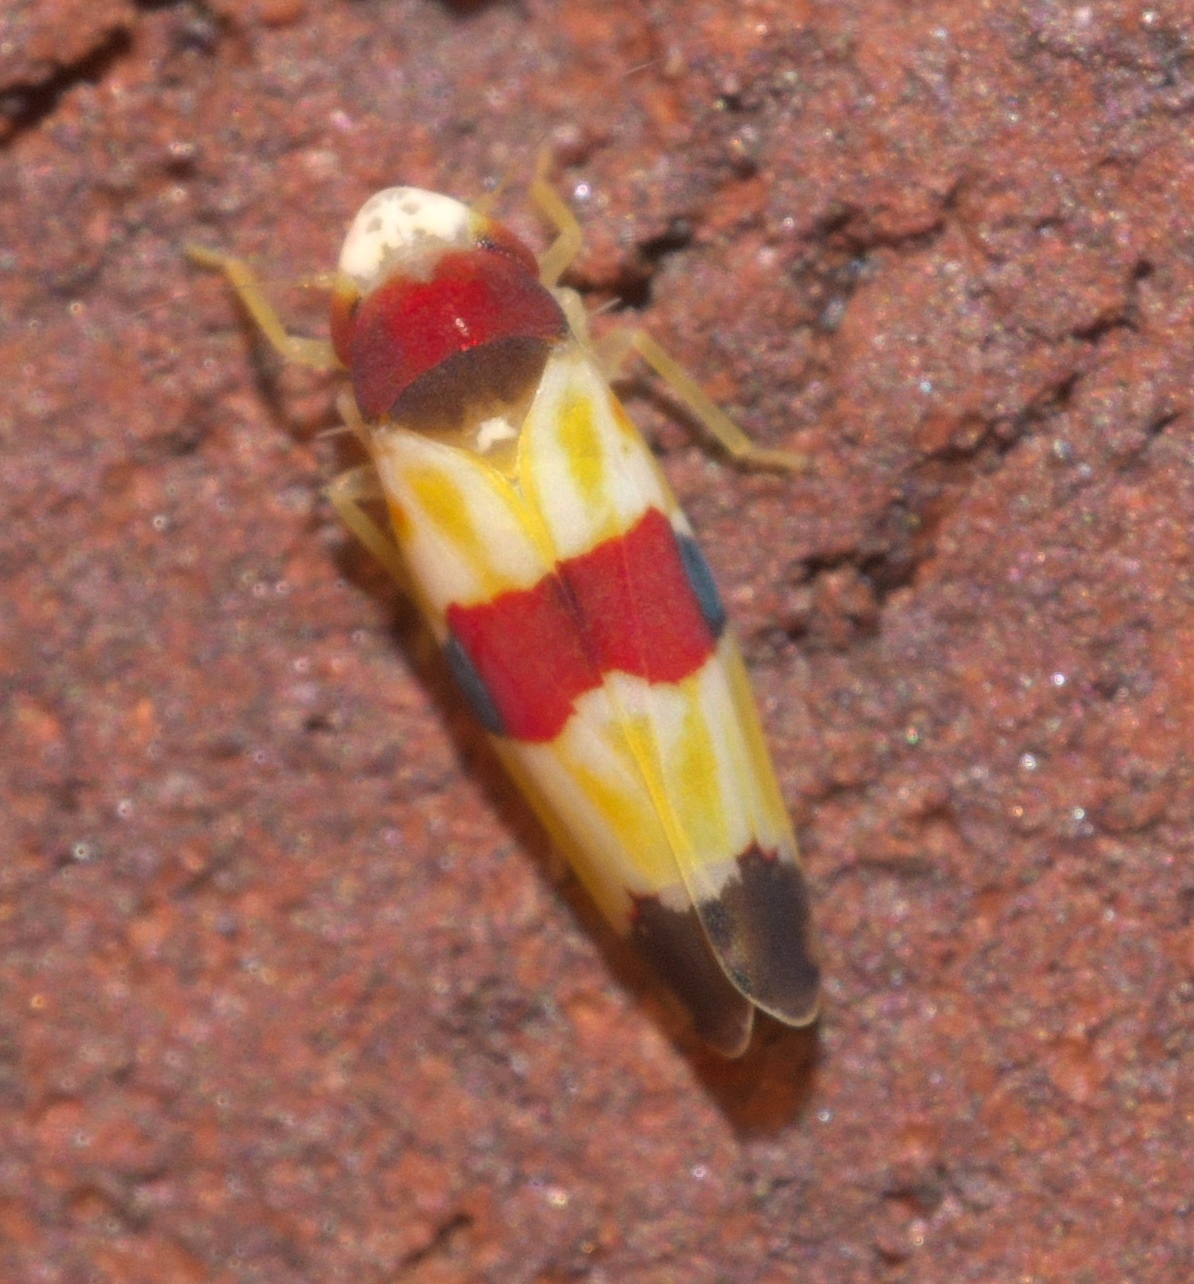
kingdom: Animalia
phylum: Arthropoda
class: Insecta
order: Hemiptera
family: Cicadellidae
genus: Erythroneura
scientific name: Erythroneura diva
